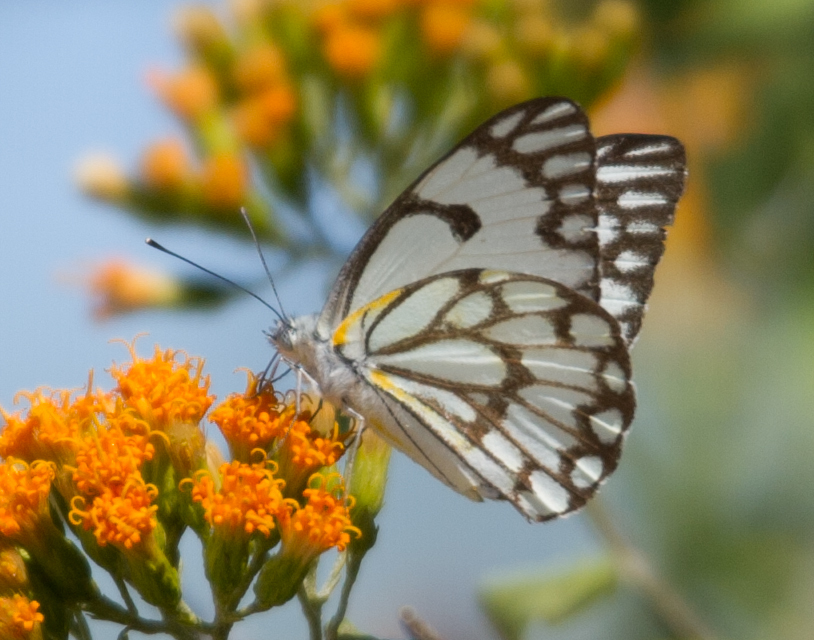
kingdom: Animalia
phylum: Arthropoda
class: Insecta
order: Lepidoptera
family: Pieridae
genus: Belenois
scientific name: Belenois aurota
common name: Brown-veined white
